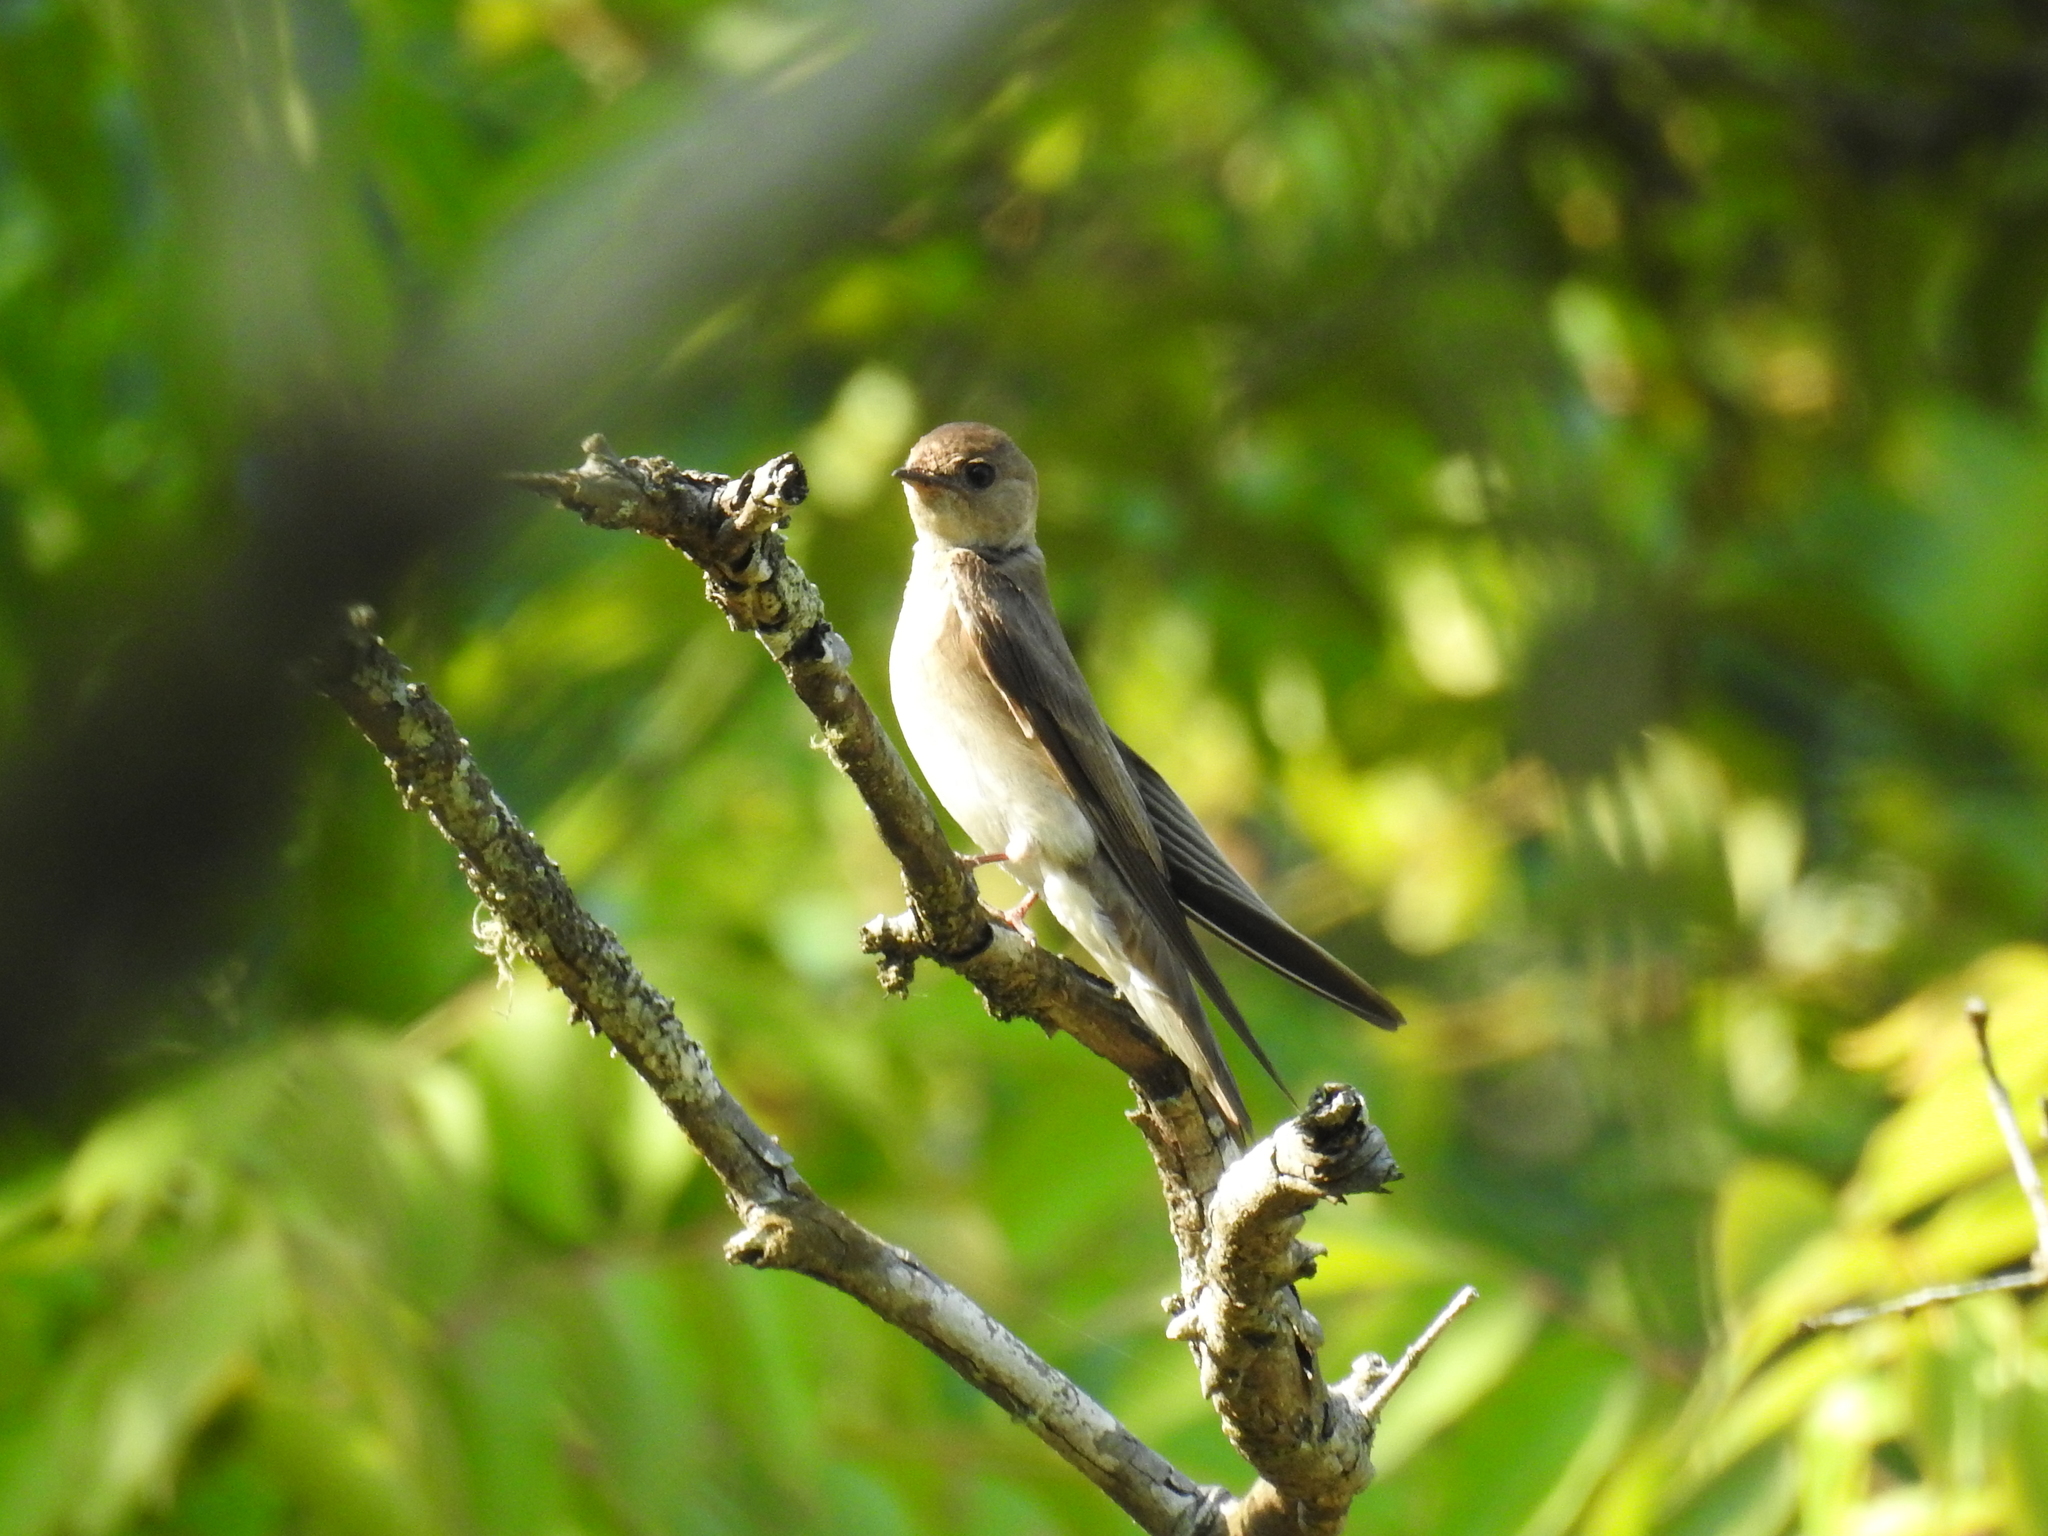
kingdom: Animalia
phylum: Chordata
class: Aves
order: Passeriformes
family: Hirundinidae
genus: Stelgidopteryx
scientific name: Stelgidopteryx serripennis
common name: Northern rough-winged swallow
